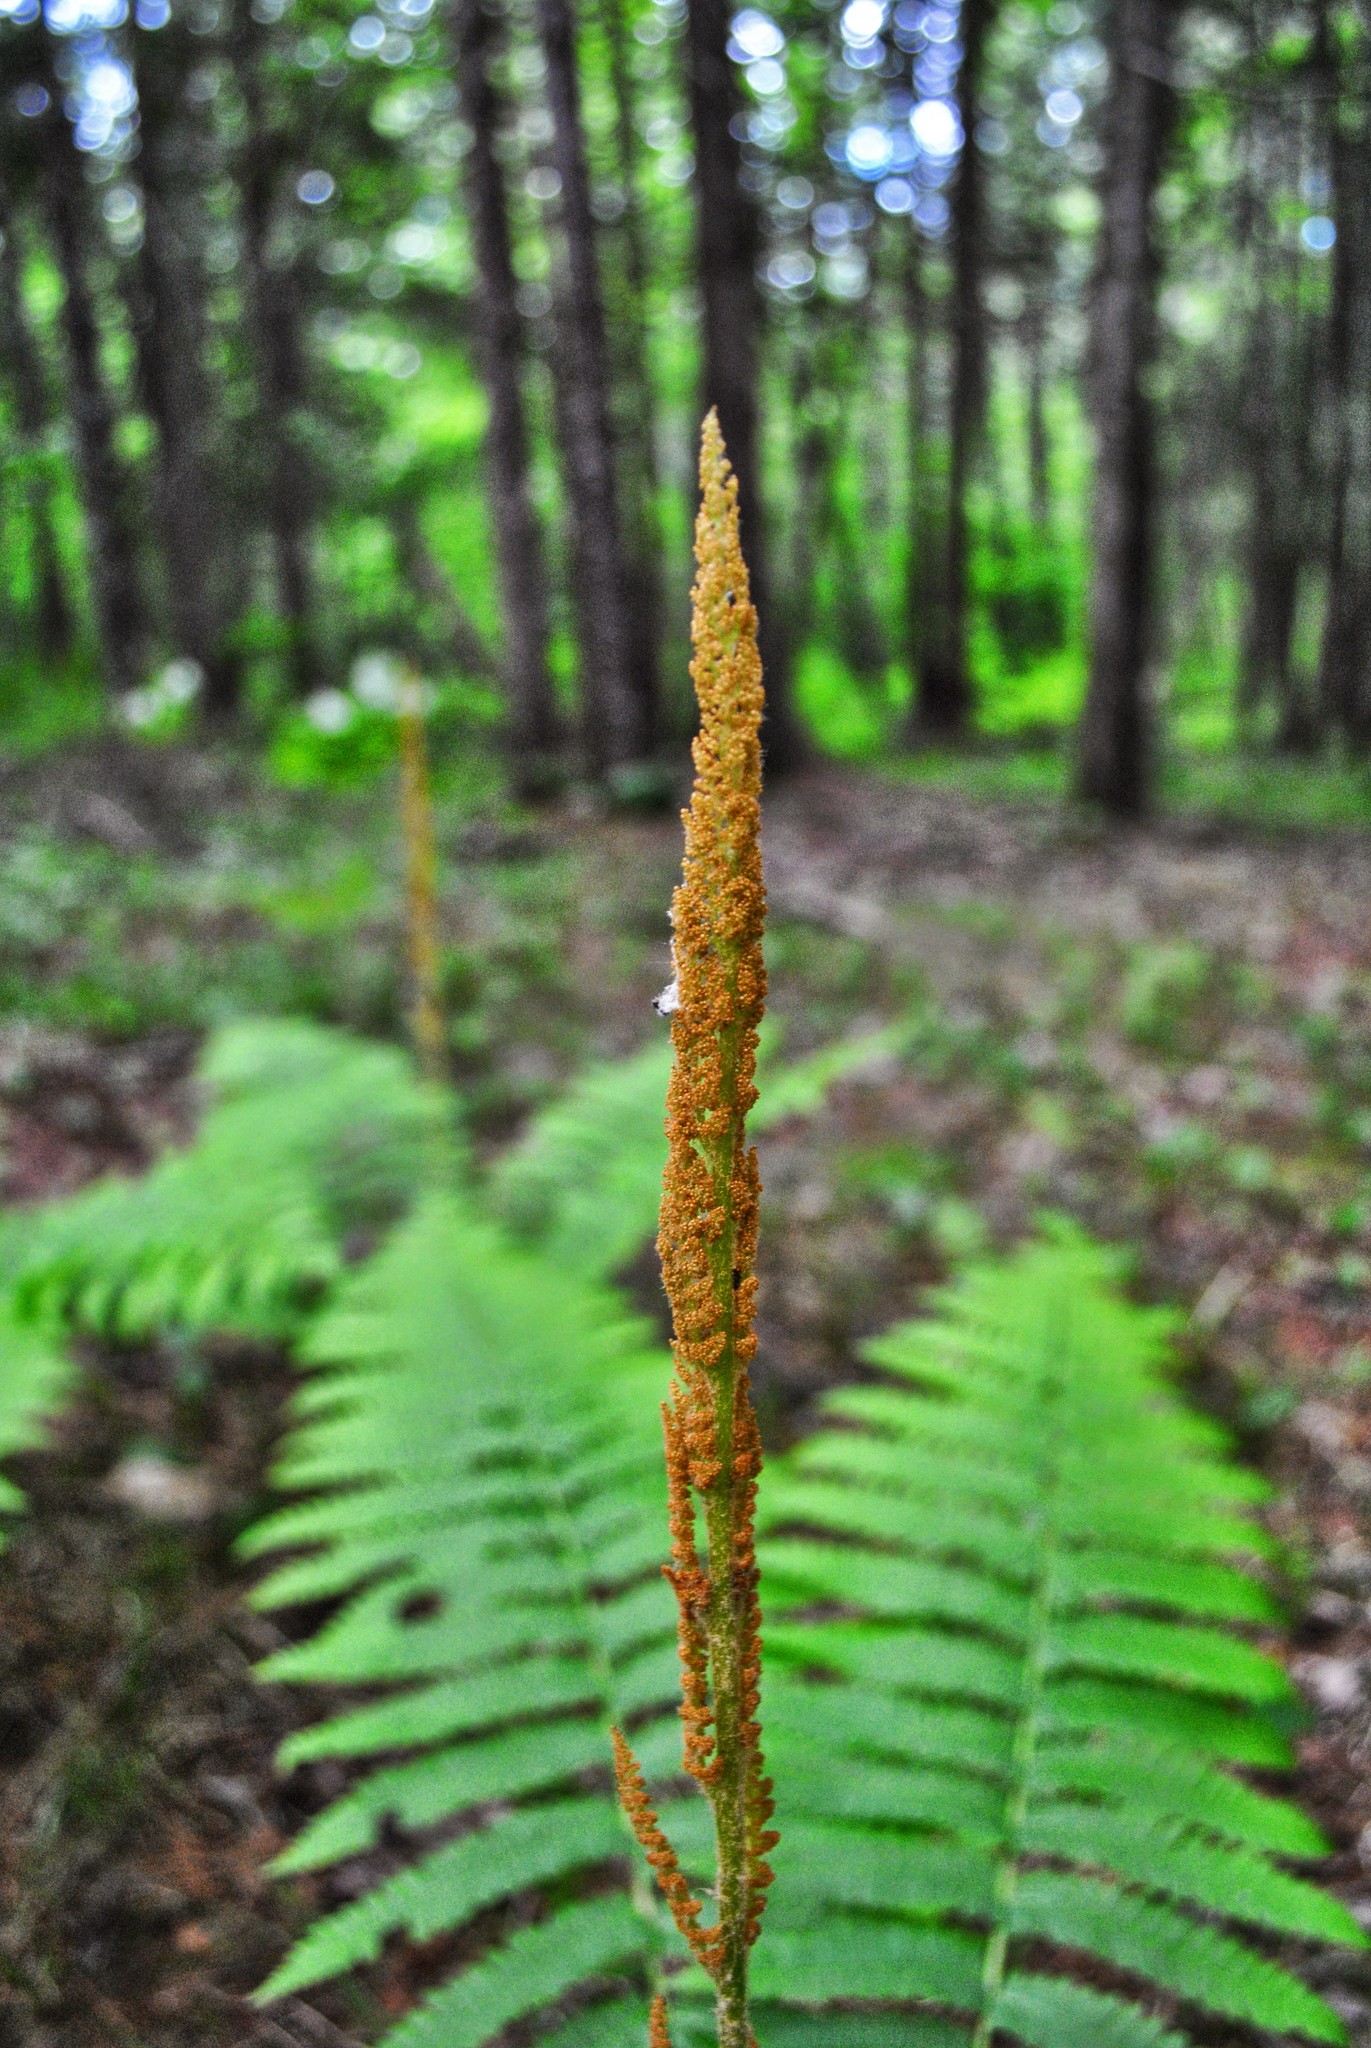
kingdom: Plantae
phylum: Tracheophyta
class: Polypodiopsida
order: Osmundales
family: Osmundaceae
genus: Osmundastrum
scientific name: Osmundastrum cinnamomeum
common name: Cinnamon fern
